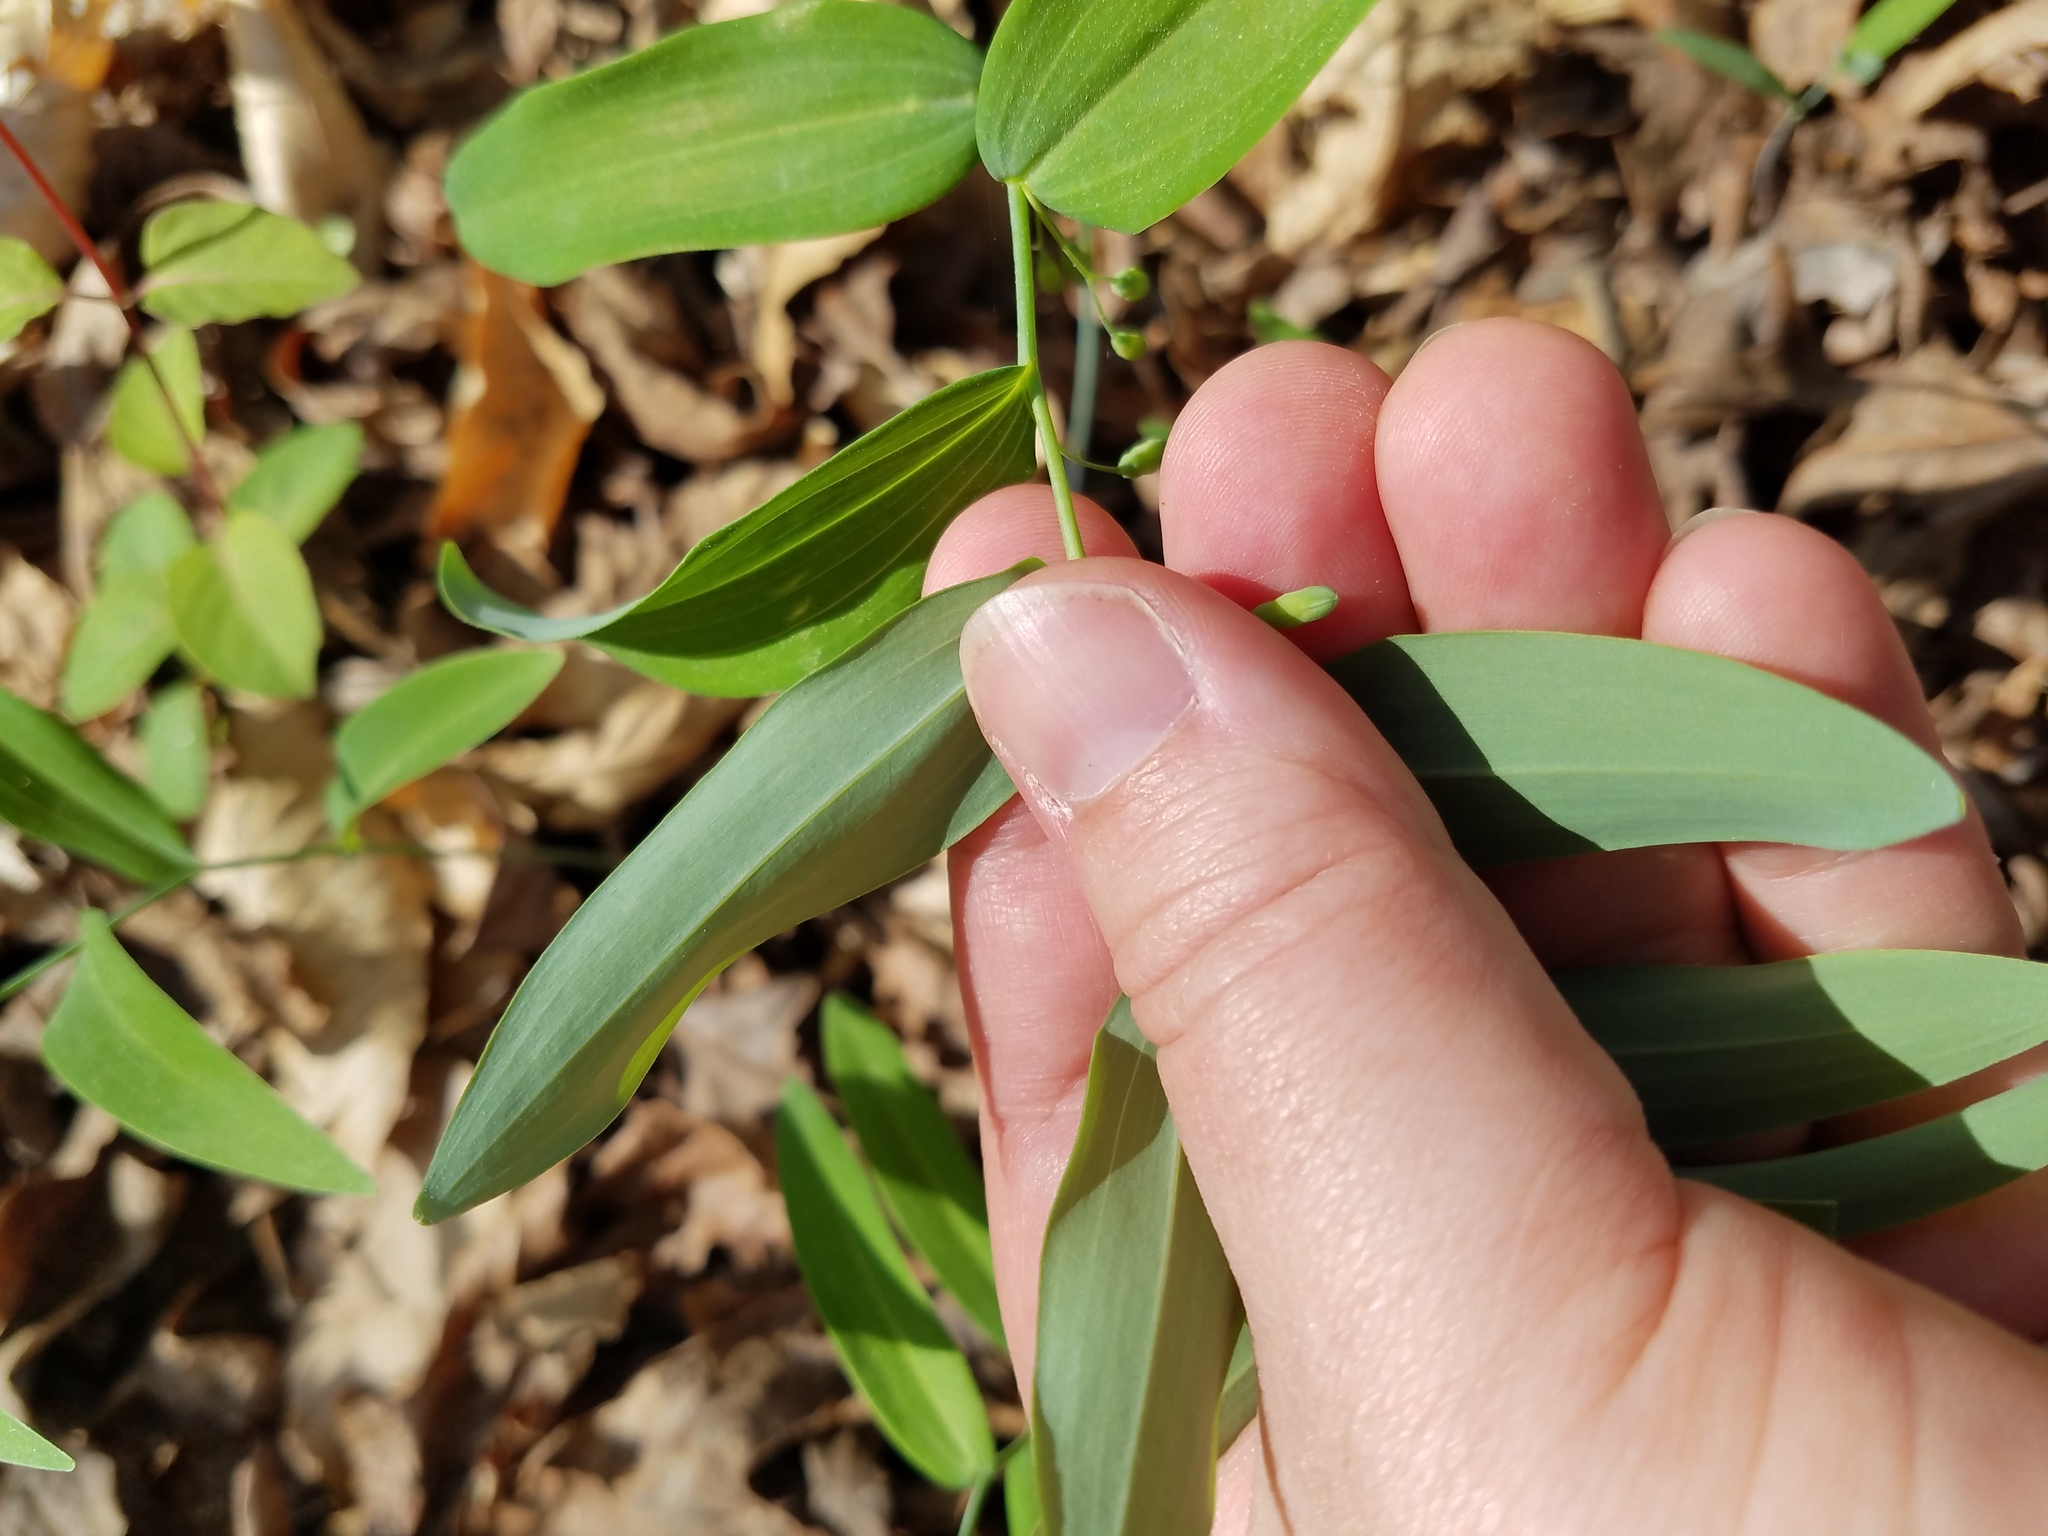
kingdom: Plantae
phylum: Tracheophyta
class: Liliopsida
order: Asparagales
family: Asparagaceae
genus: Polygonatum
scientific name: Polygonatum biflorum
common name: American solomon's-seal
